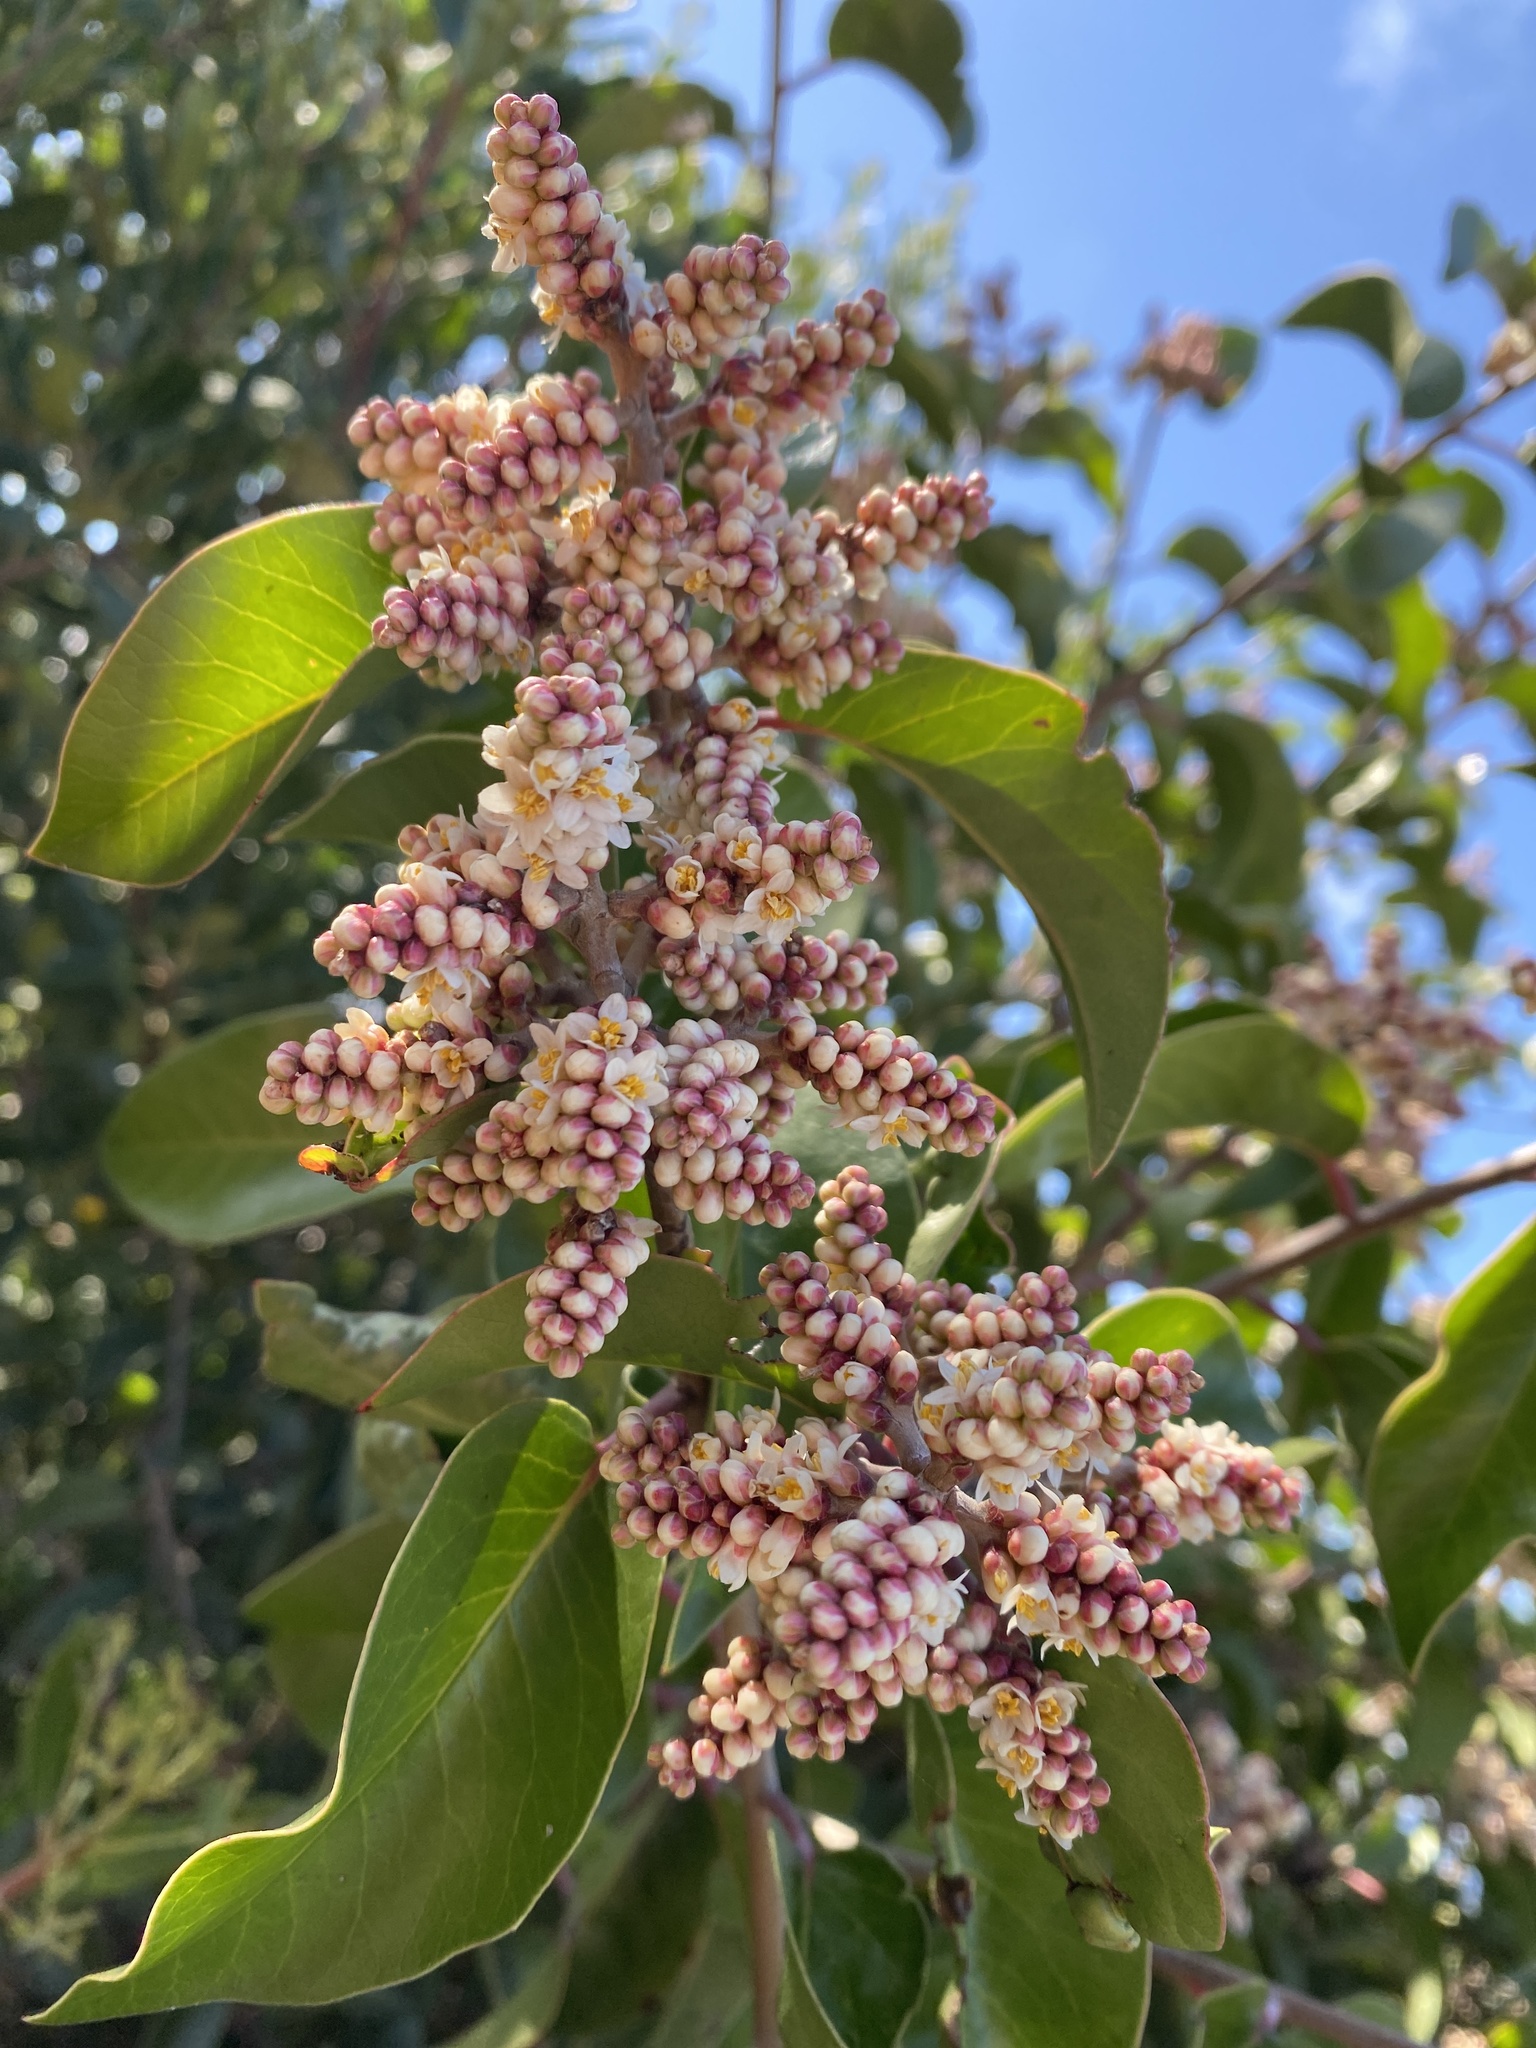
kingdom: Plantae
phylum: Tracheophyta
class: Magnoliopsida
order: Sapindales
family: Anacardiaceae
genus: Rhus
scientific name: Rhus ovata
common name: Sugar sumac
